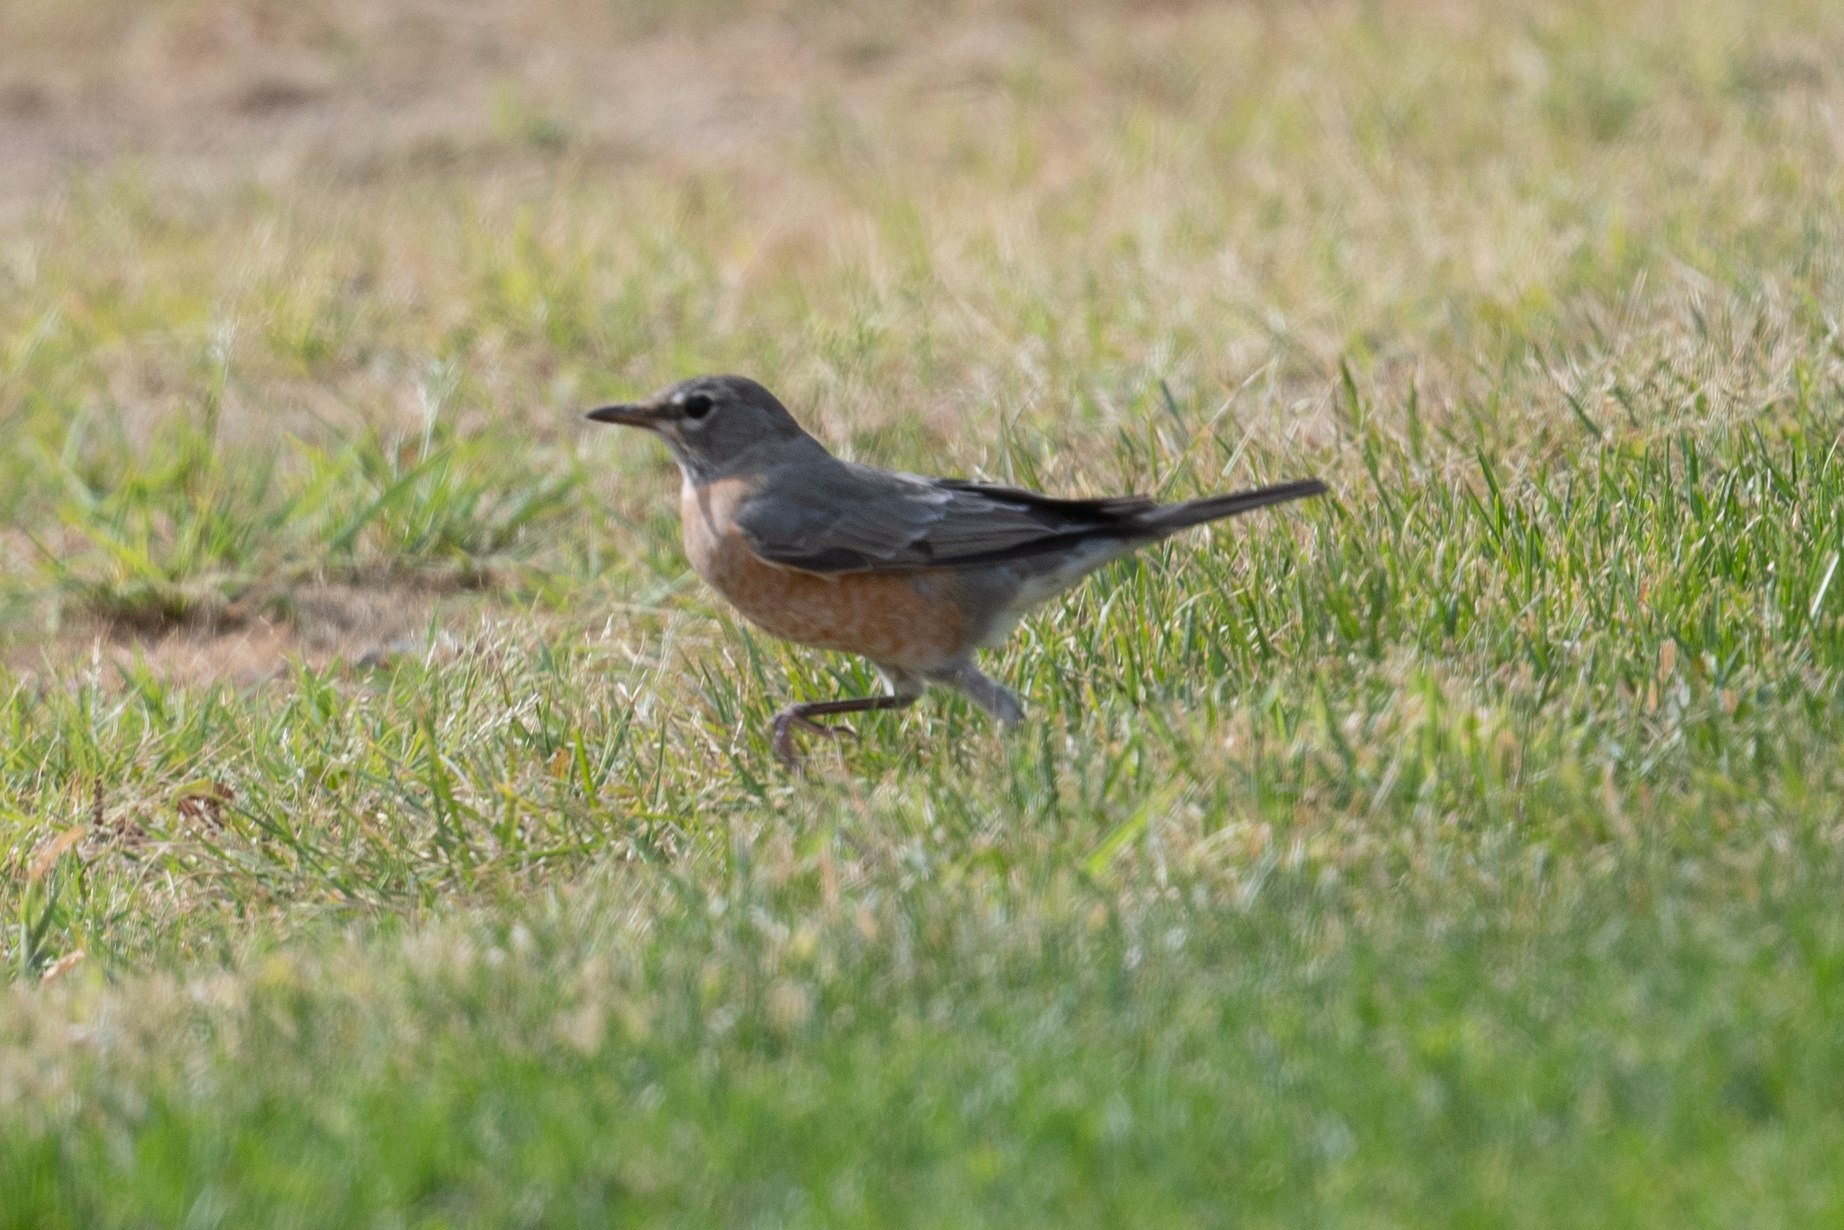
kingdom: Animalia
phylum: Chordata
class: Aves
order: Passeriformes
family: Turdidae
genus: Turdus
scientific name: Turdus migratorius
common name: American robin
